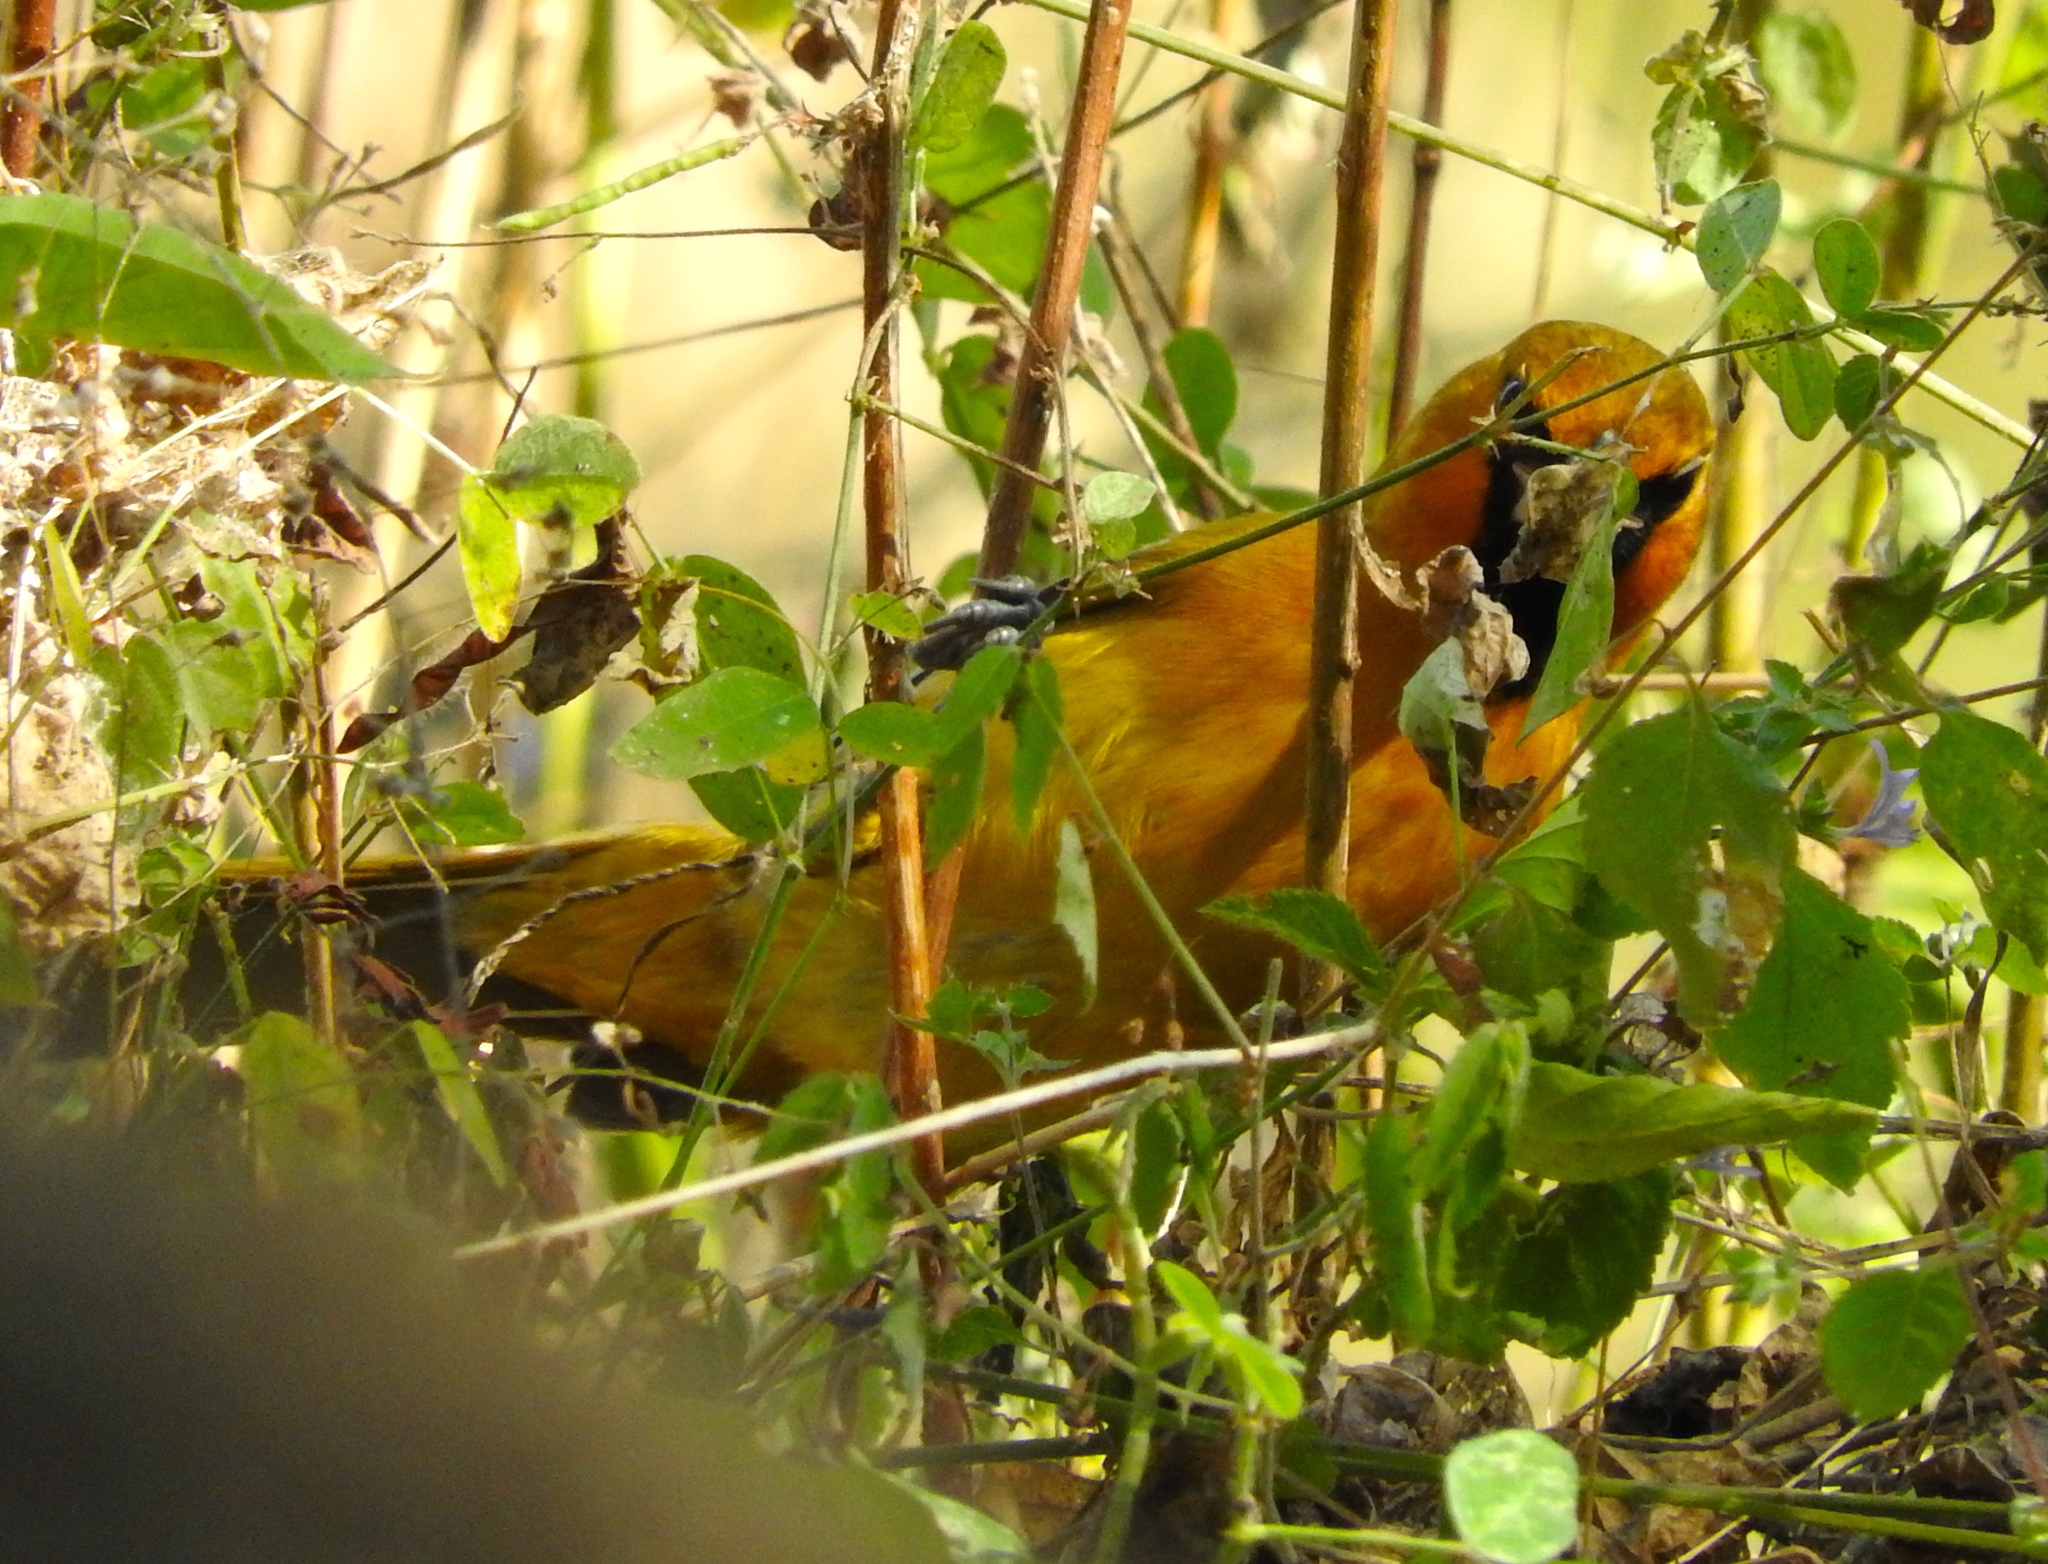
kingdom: Animalia
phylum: Chordata
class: Aves
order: Passeriformes
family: Icteridae
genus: Icterus
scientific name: Icterus pustulatus
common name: Streak-backed oriole
